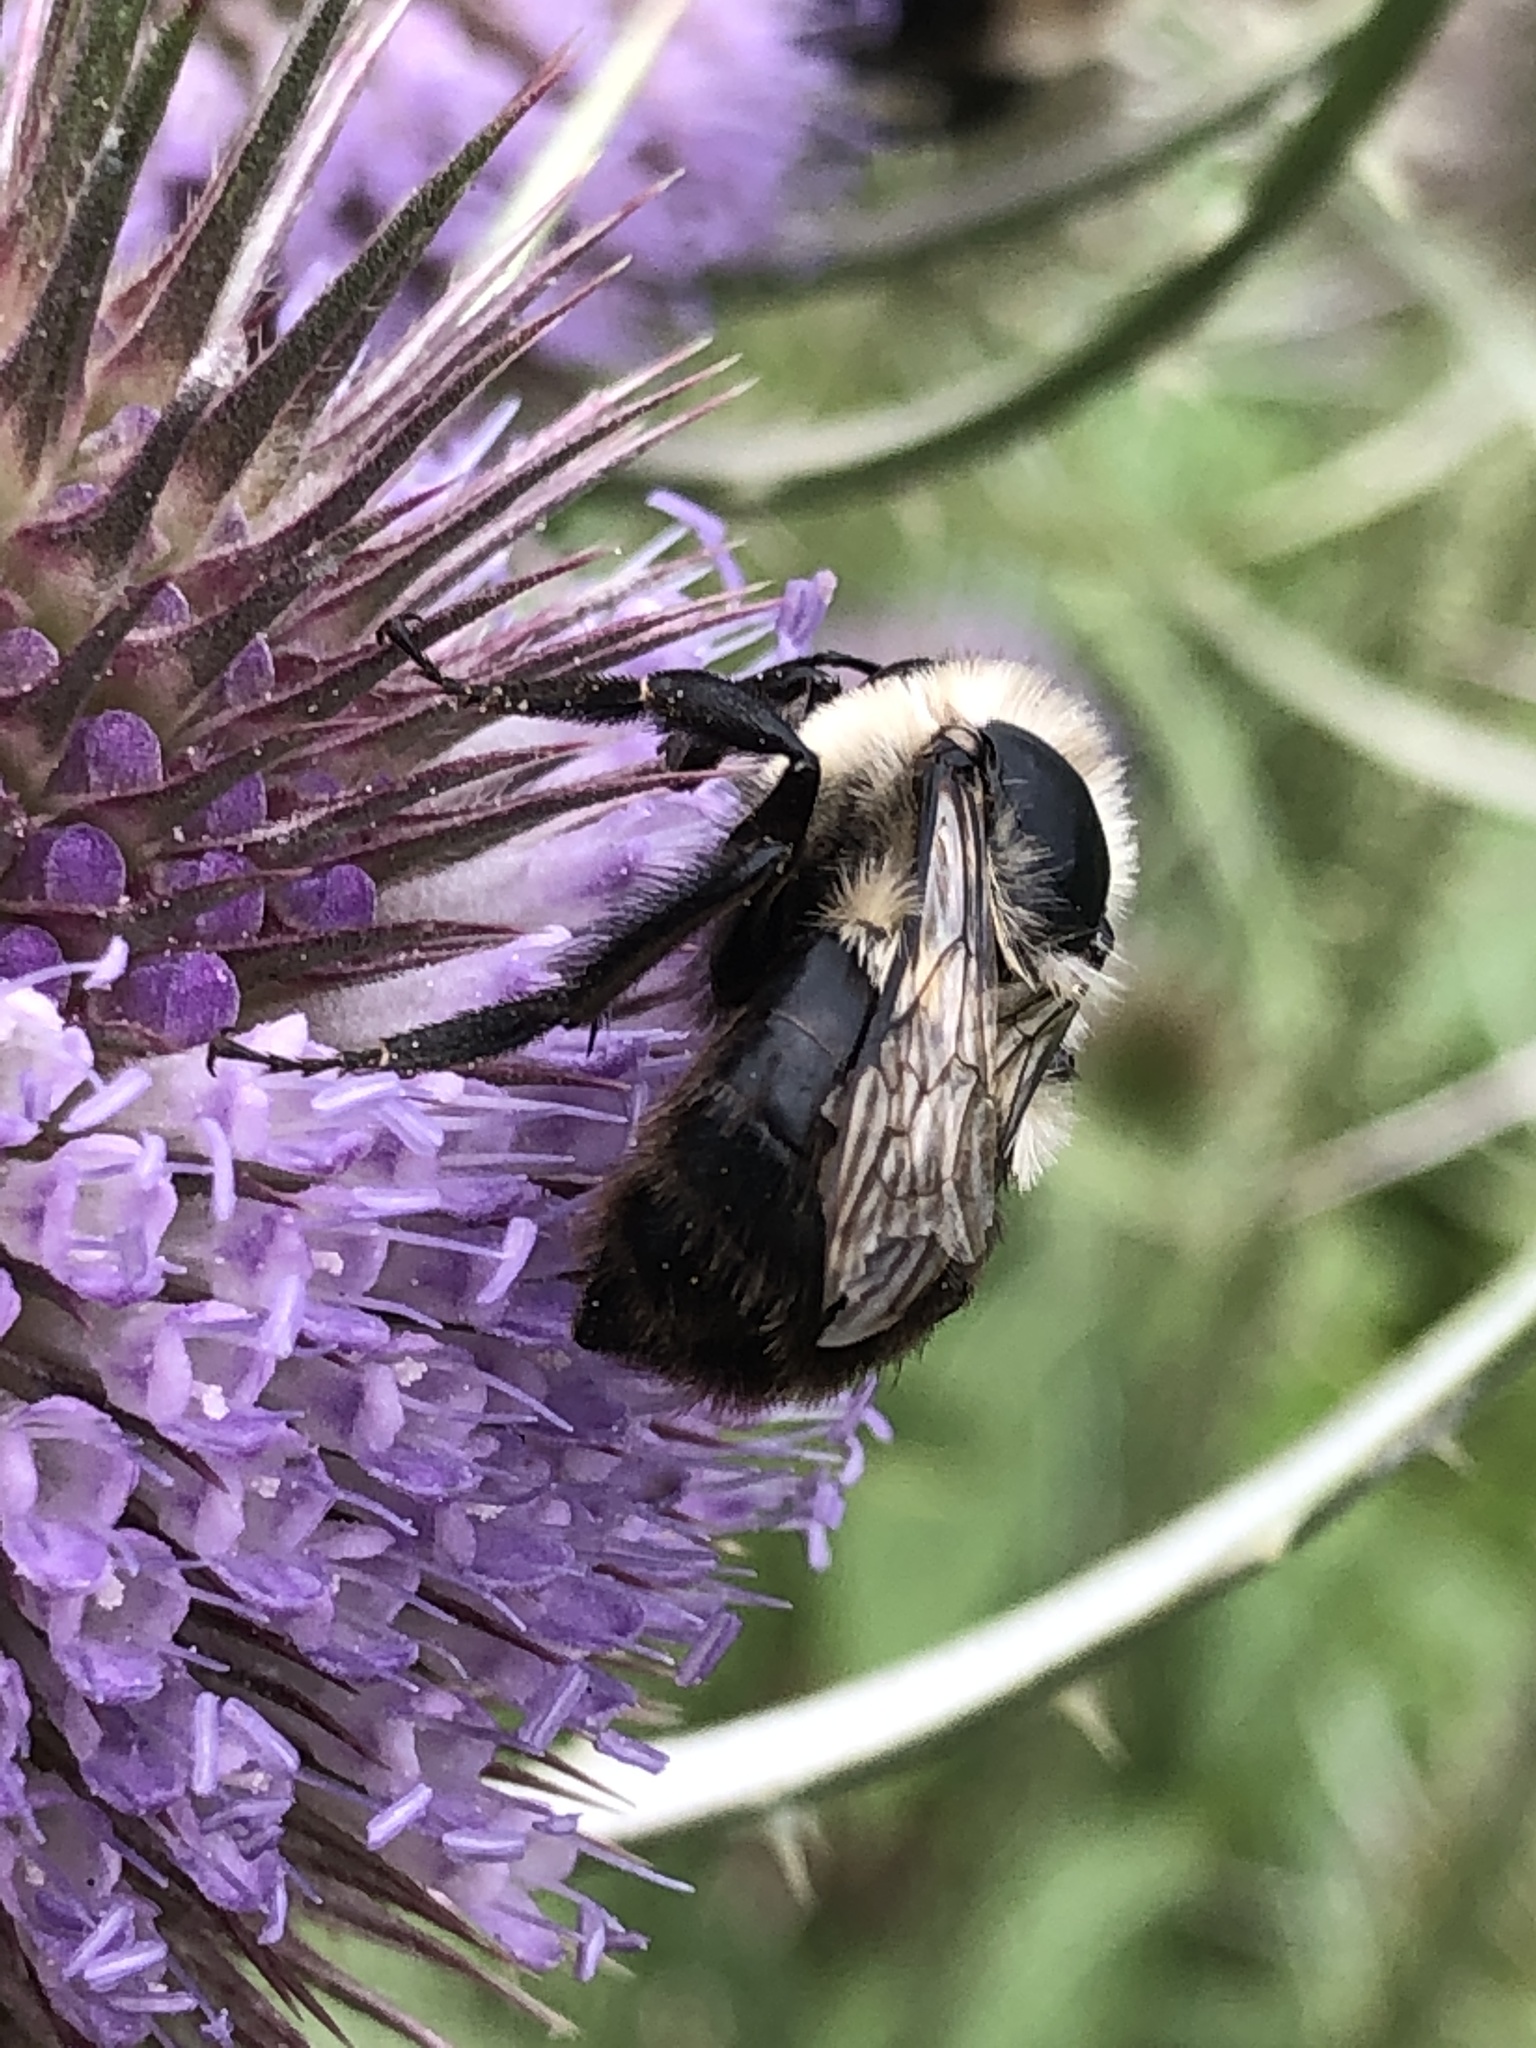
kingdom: Animalia
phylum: Arthropoda
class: Insecta
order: Hymenoptera
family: Apidae
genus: Bombus
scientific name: Bombus impatiens
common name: Common eastern bumble bee
